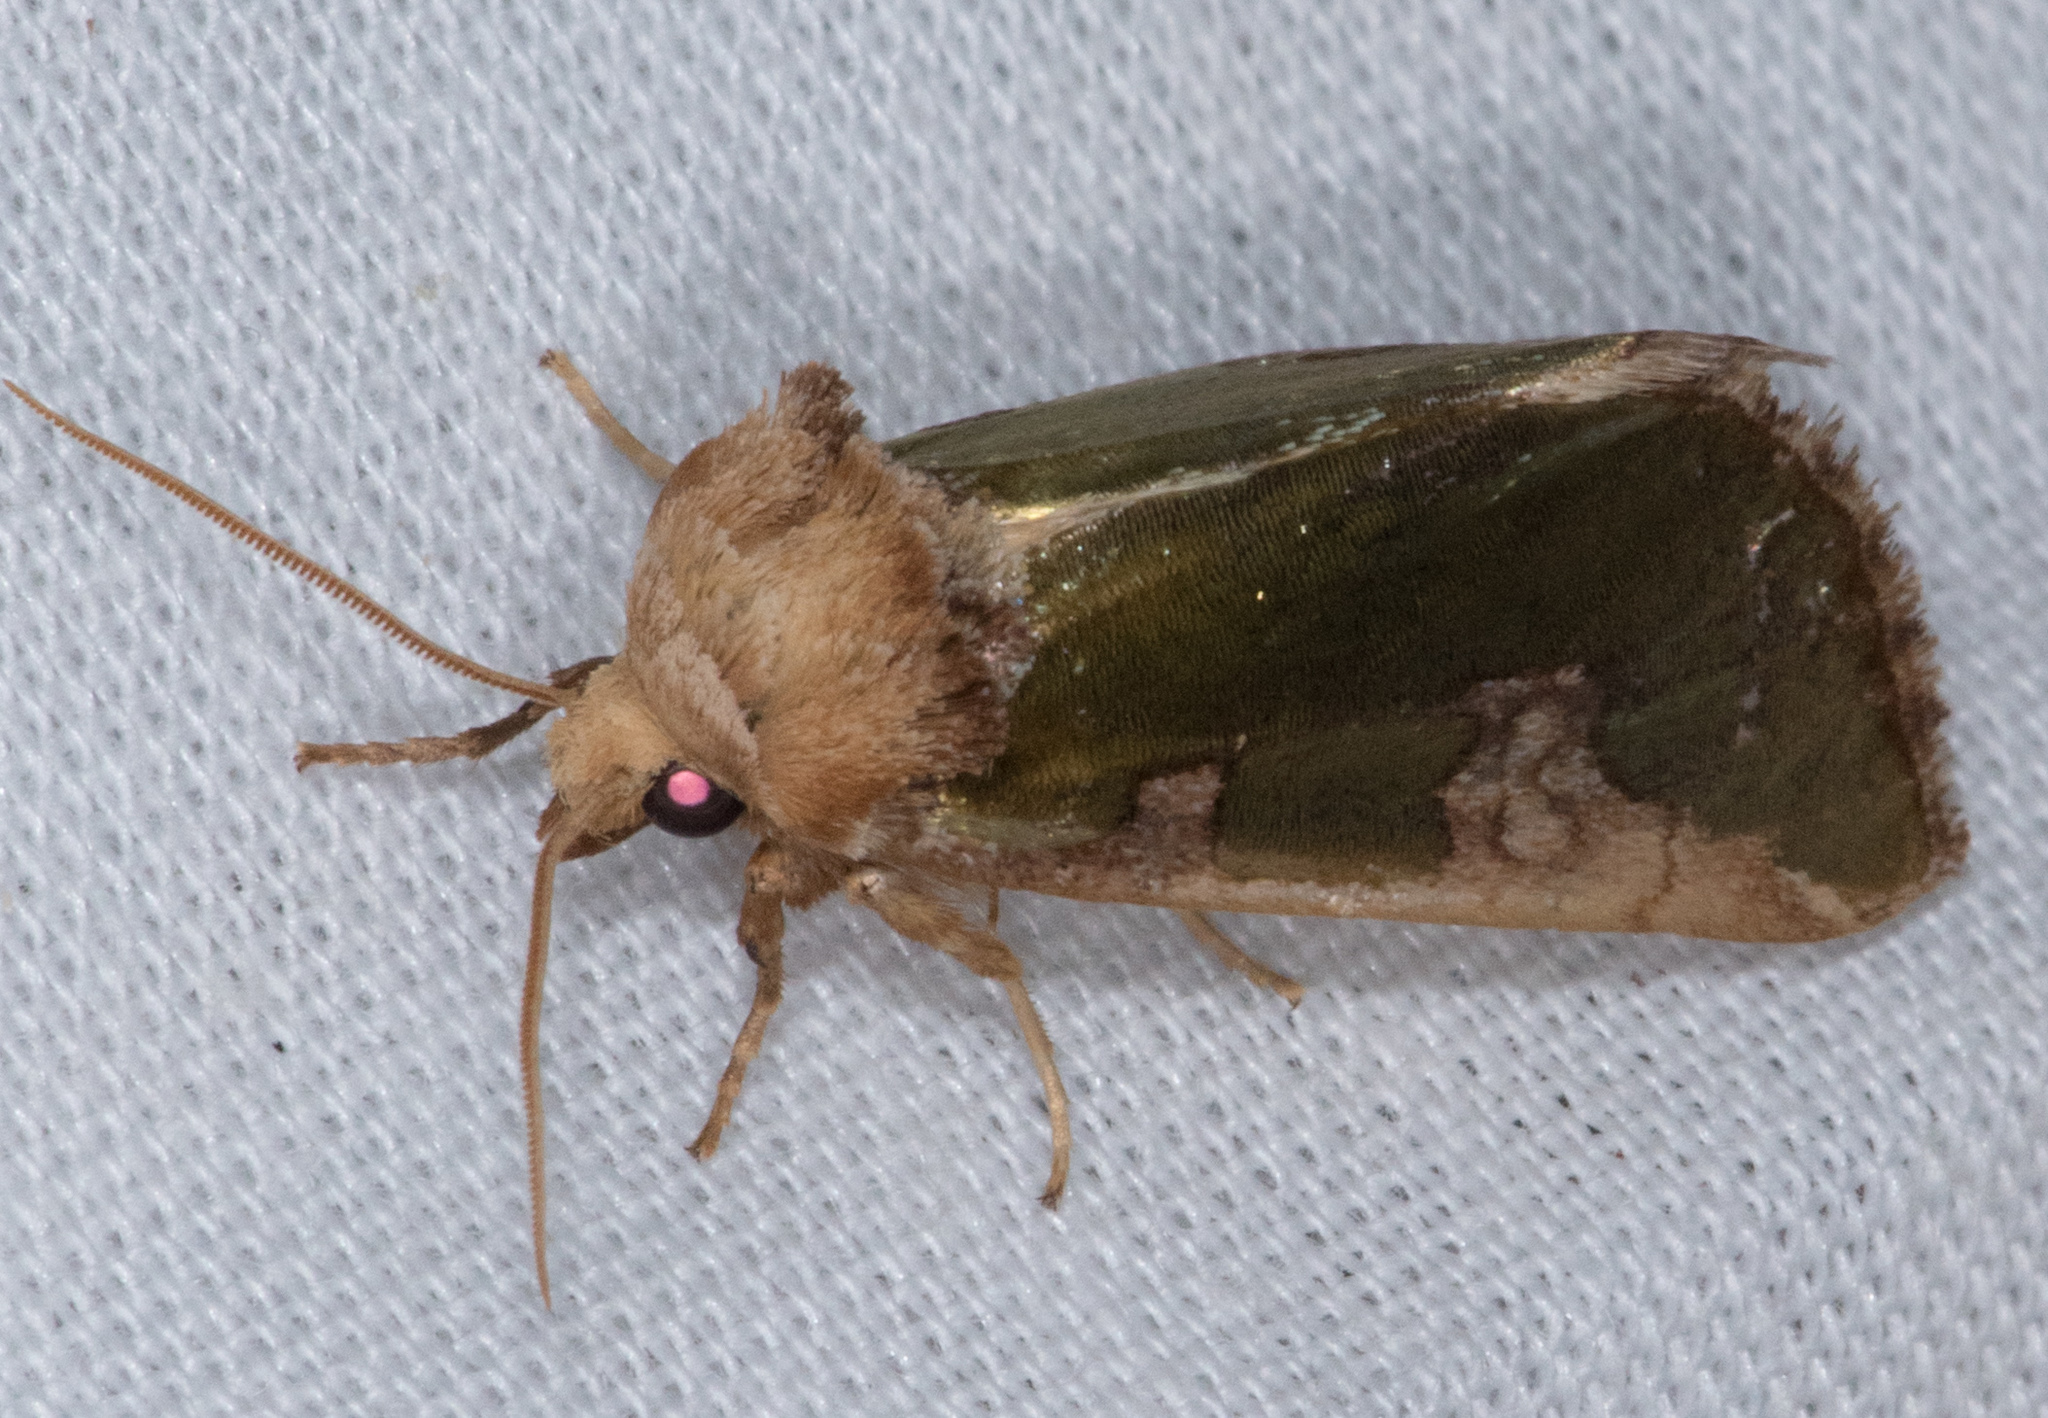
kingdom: Animalia
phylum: Arthropoda
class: Insecta
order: Lepidoptera
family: Noctuidae
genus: Chalcopasta
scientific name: Chalcopasta territans
